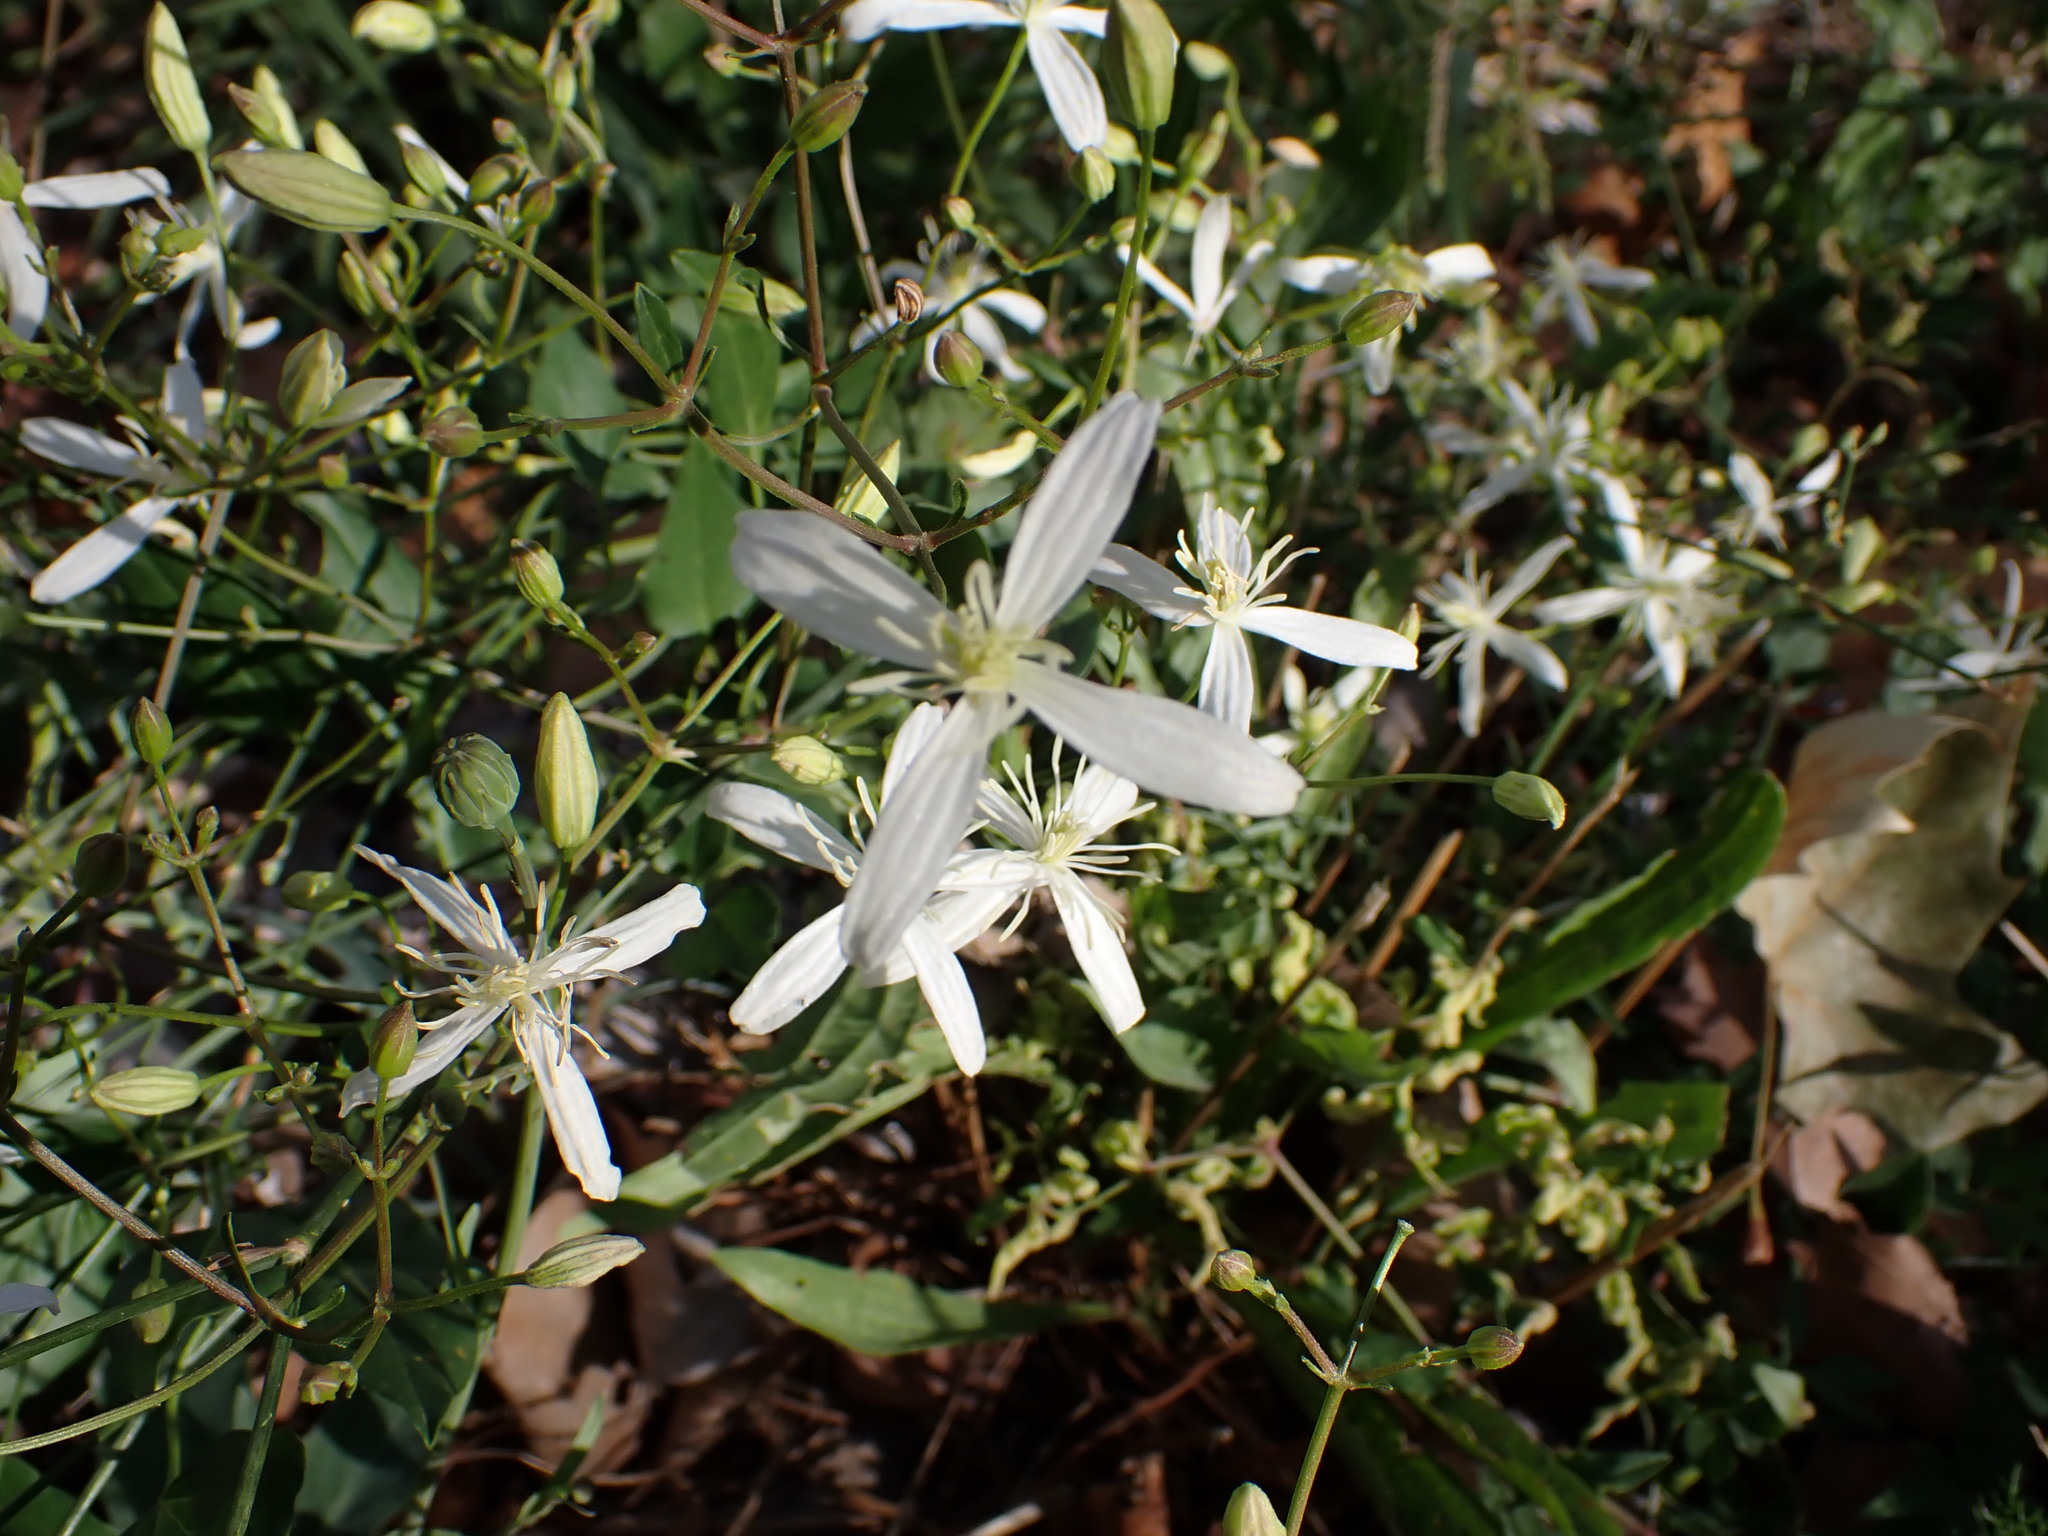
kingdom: Plantae
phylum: Tracheophyta
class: Magnoliopsida
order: Ranunculales
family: Ranunculaceae
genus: Clematis
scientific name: Clematis flammula
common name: Virgin's-bower
